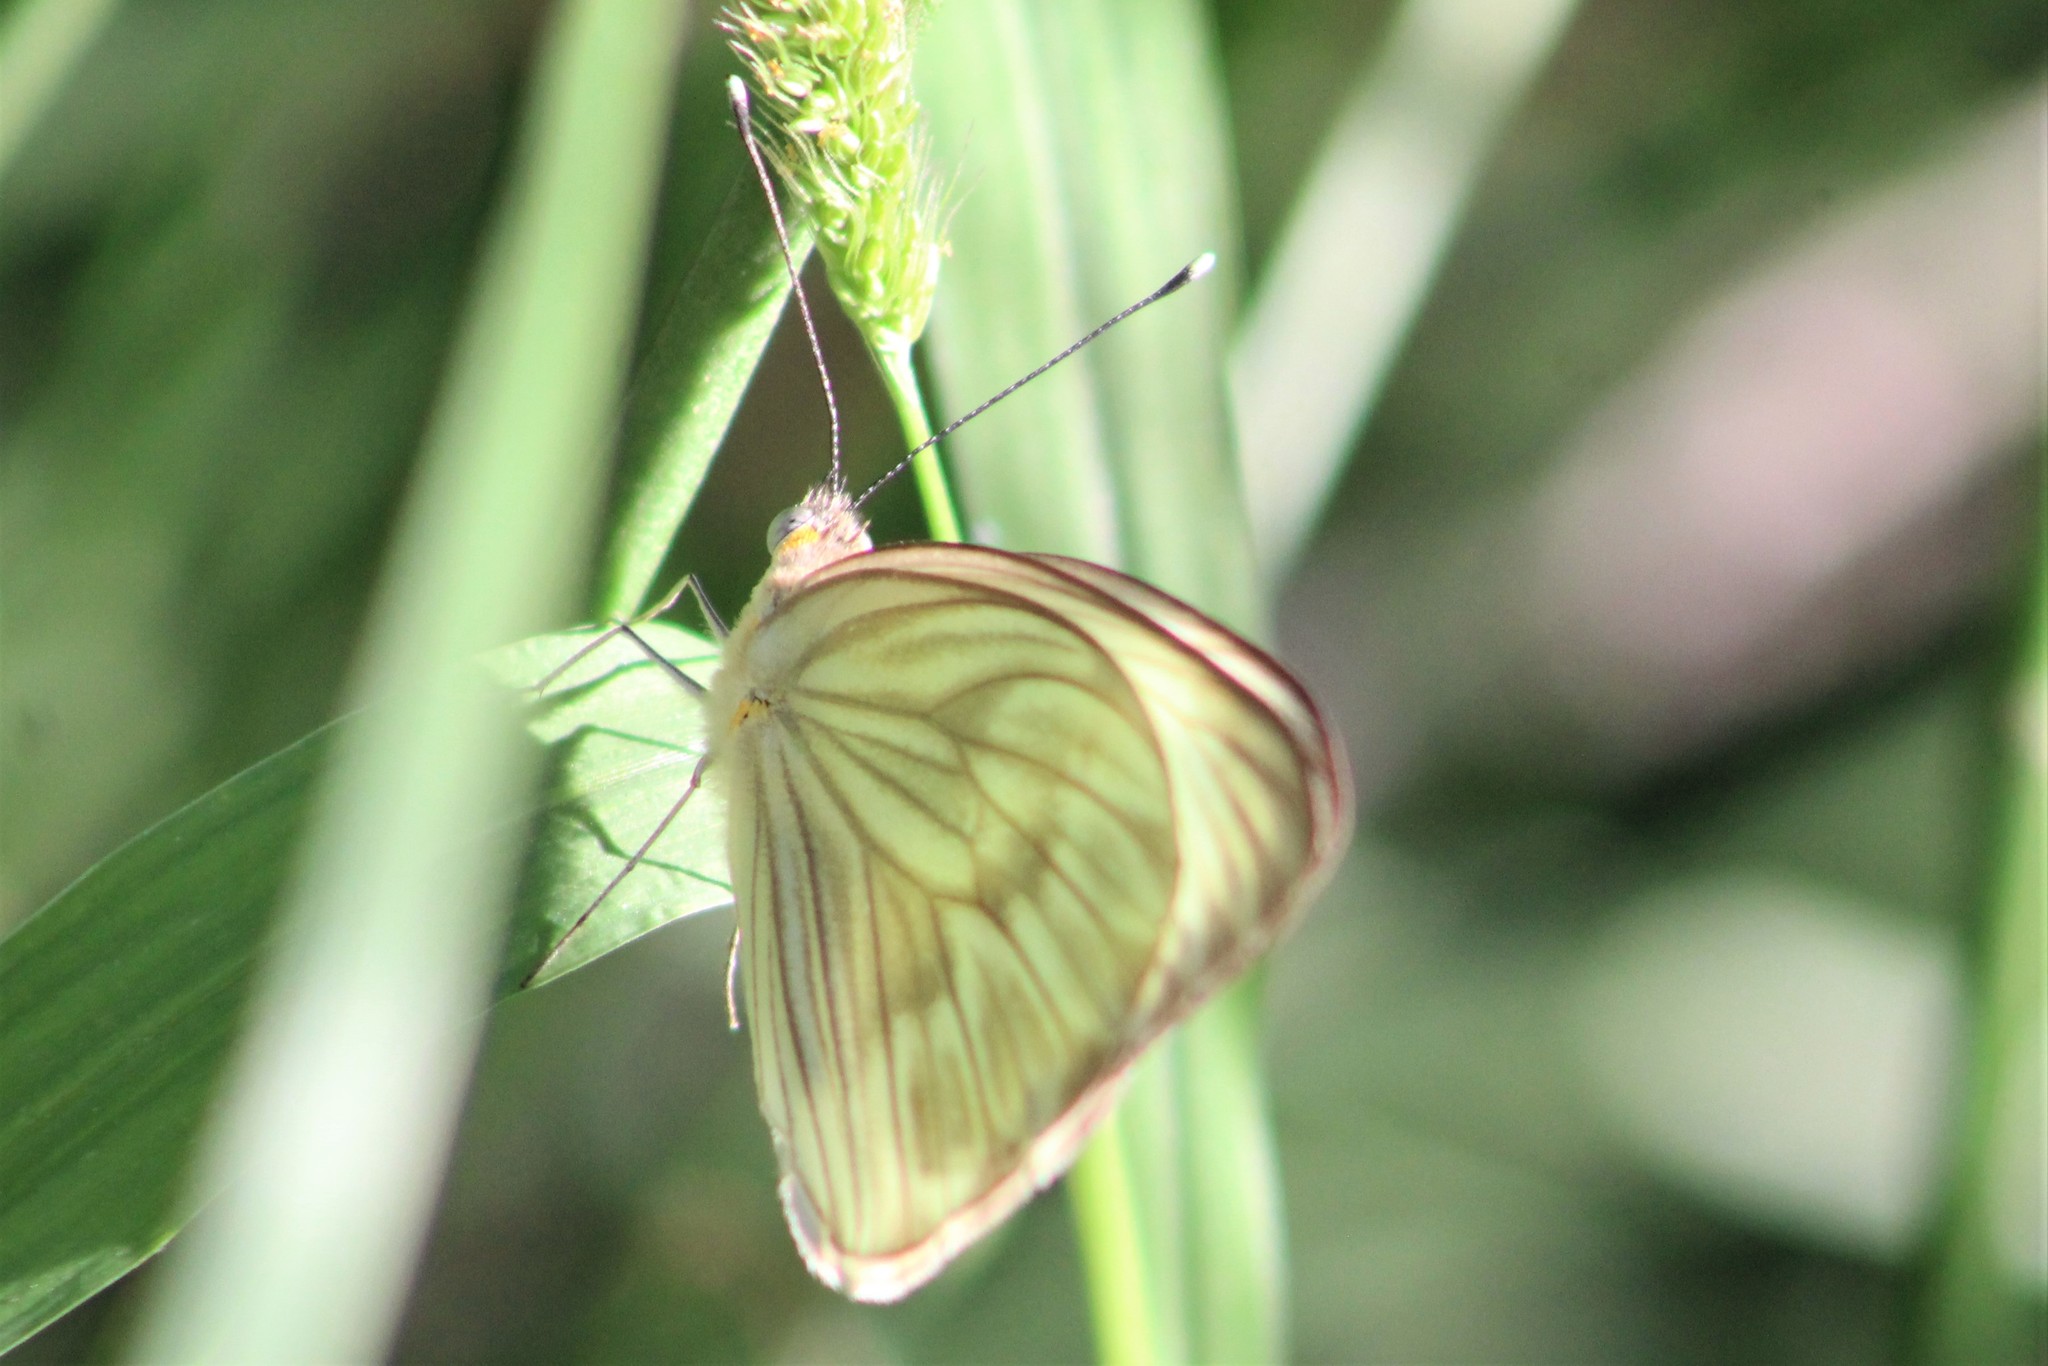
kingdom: Animalia
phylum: Arthropoda
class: Insecta
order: Lepidoptera
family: Pieridae
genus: Ascia
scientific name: Ascia monuste
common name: Great southern white
